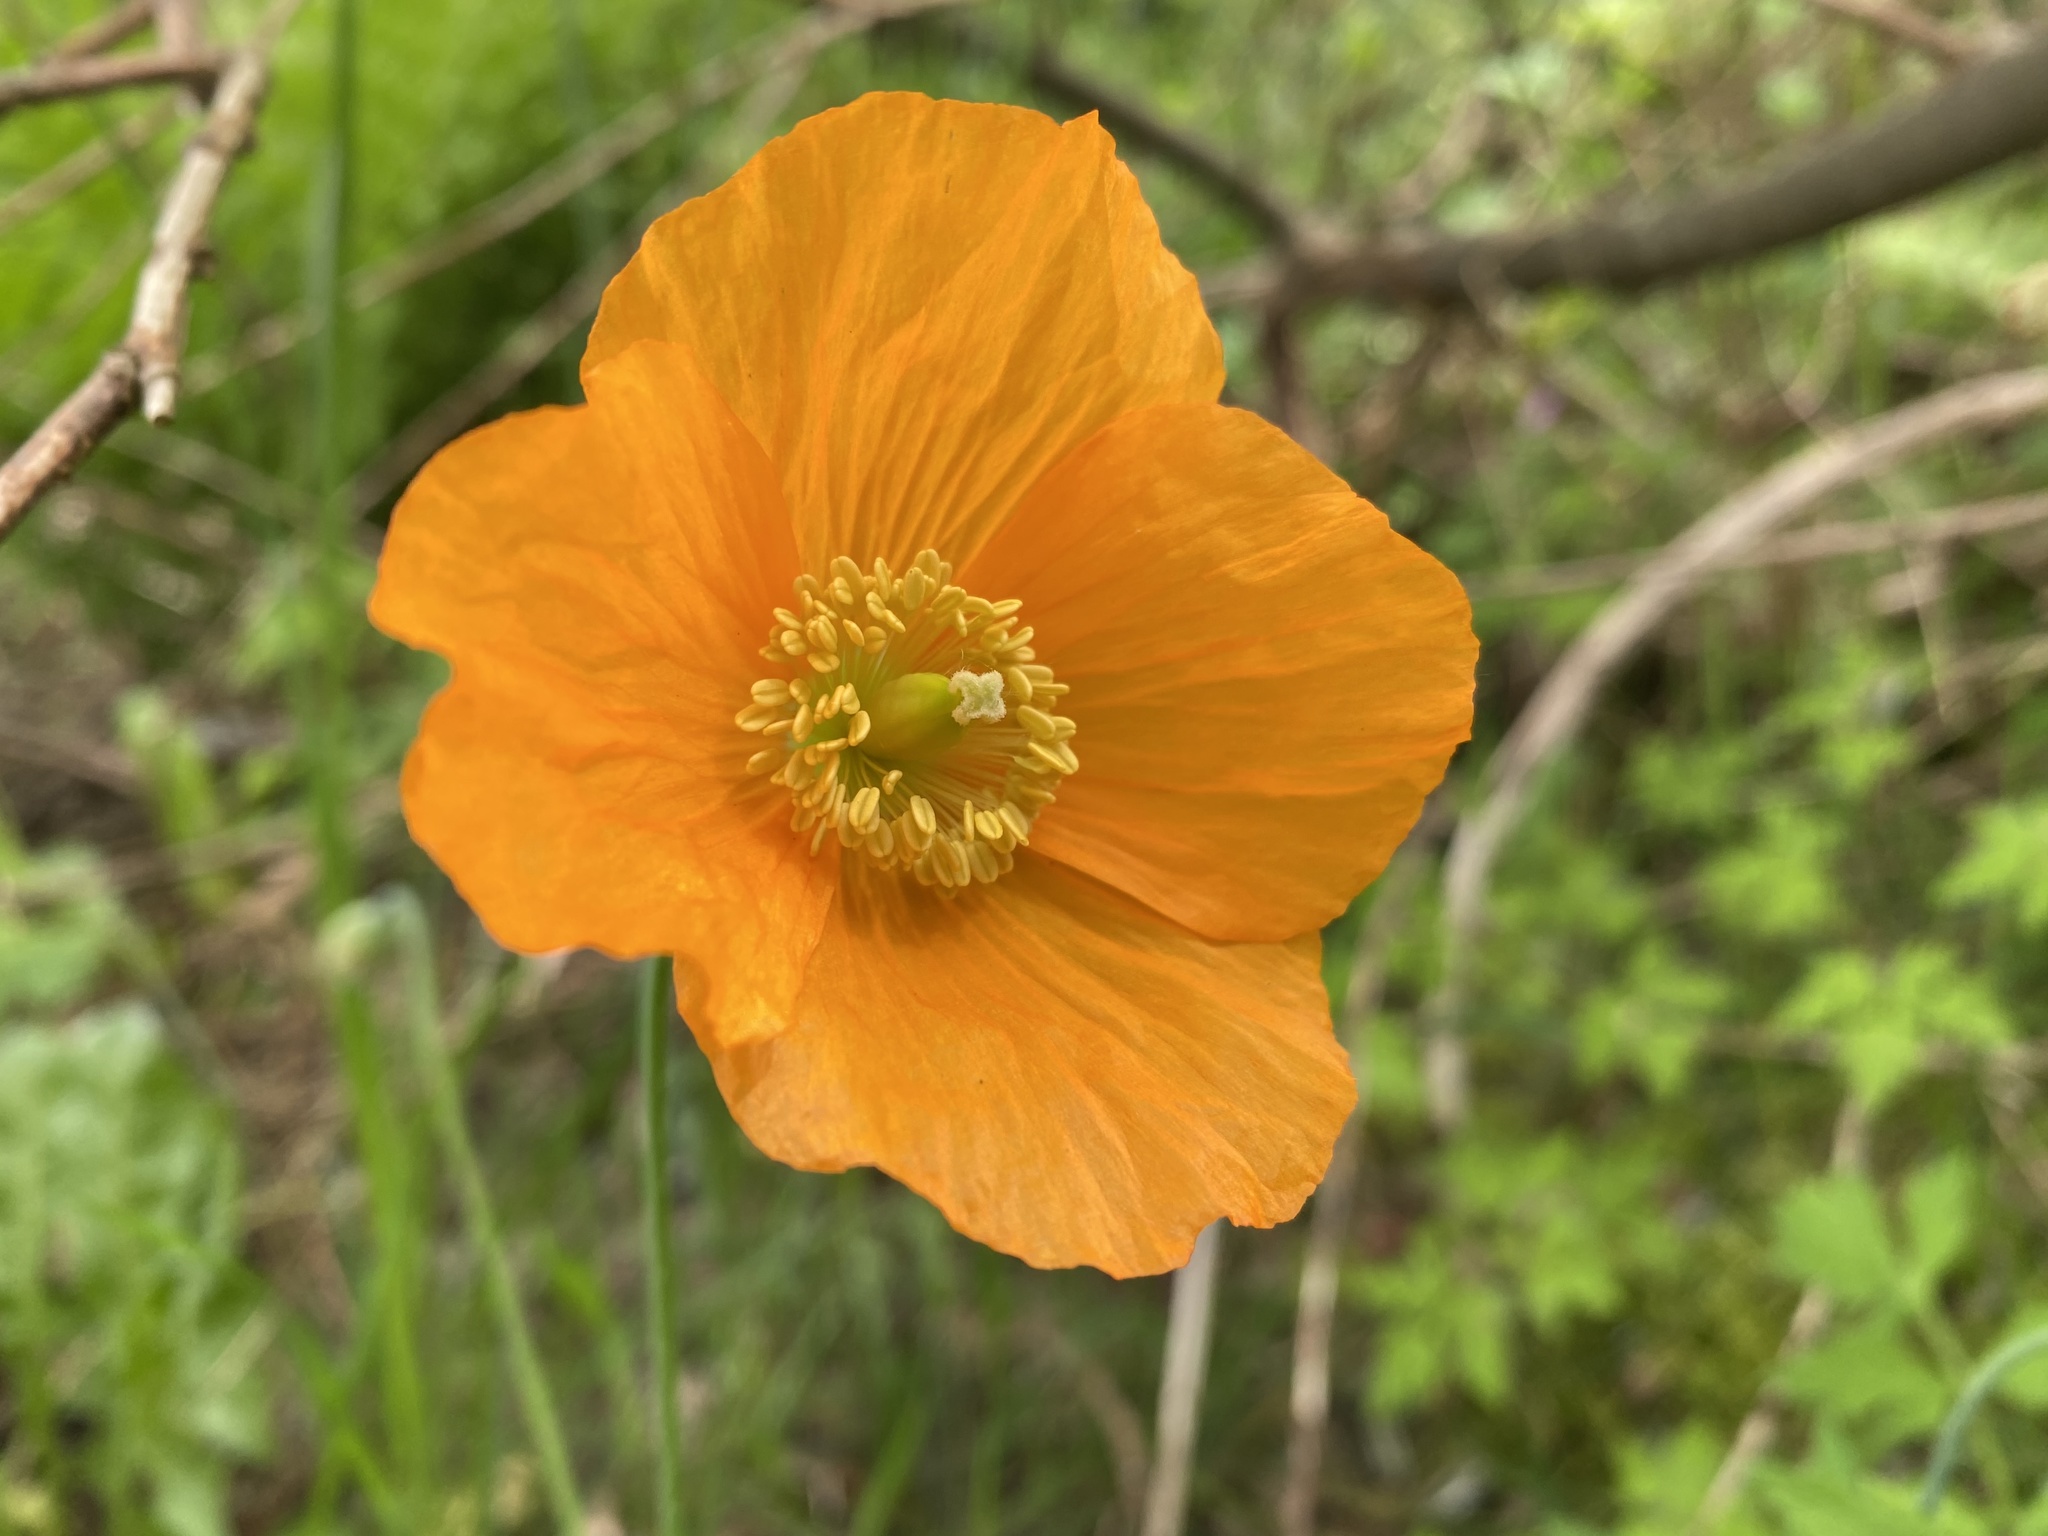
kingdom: Plantae
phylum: Tracheophyta
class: Magnoliopsida
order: Ranunculales
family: Papaveraceae
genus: Papaver
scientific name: Papaver cambricum
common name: Poppy
